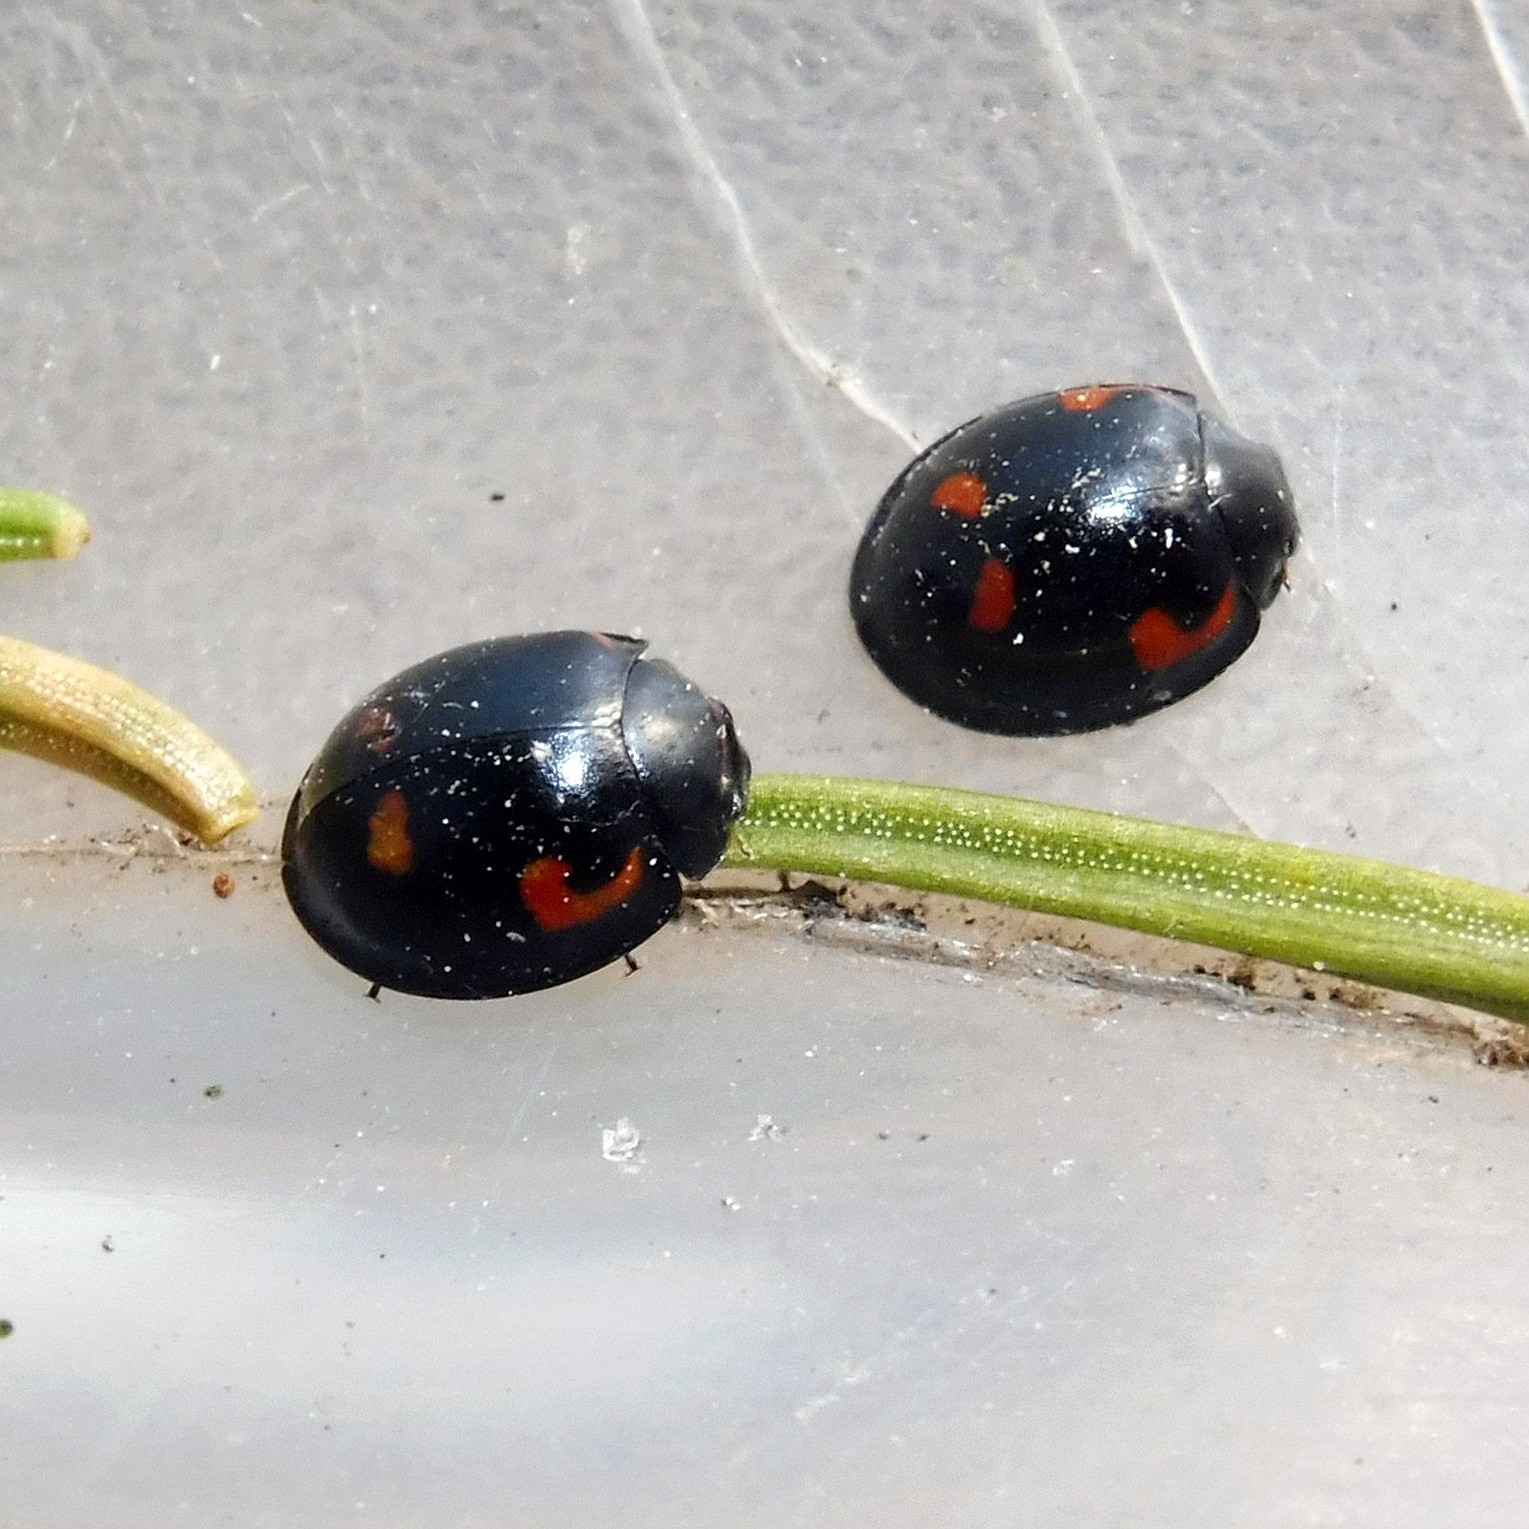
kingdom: Animalia
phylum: Arthropoda
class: Insecta
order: Coleoptera
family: Coccinellidae
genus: Brumus
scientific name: Brumus quadripustulatus
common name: Ladybird beetle
